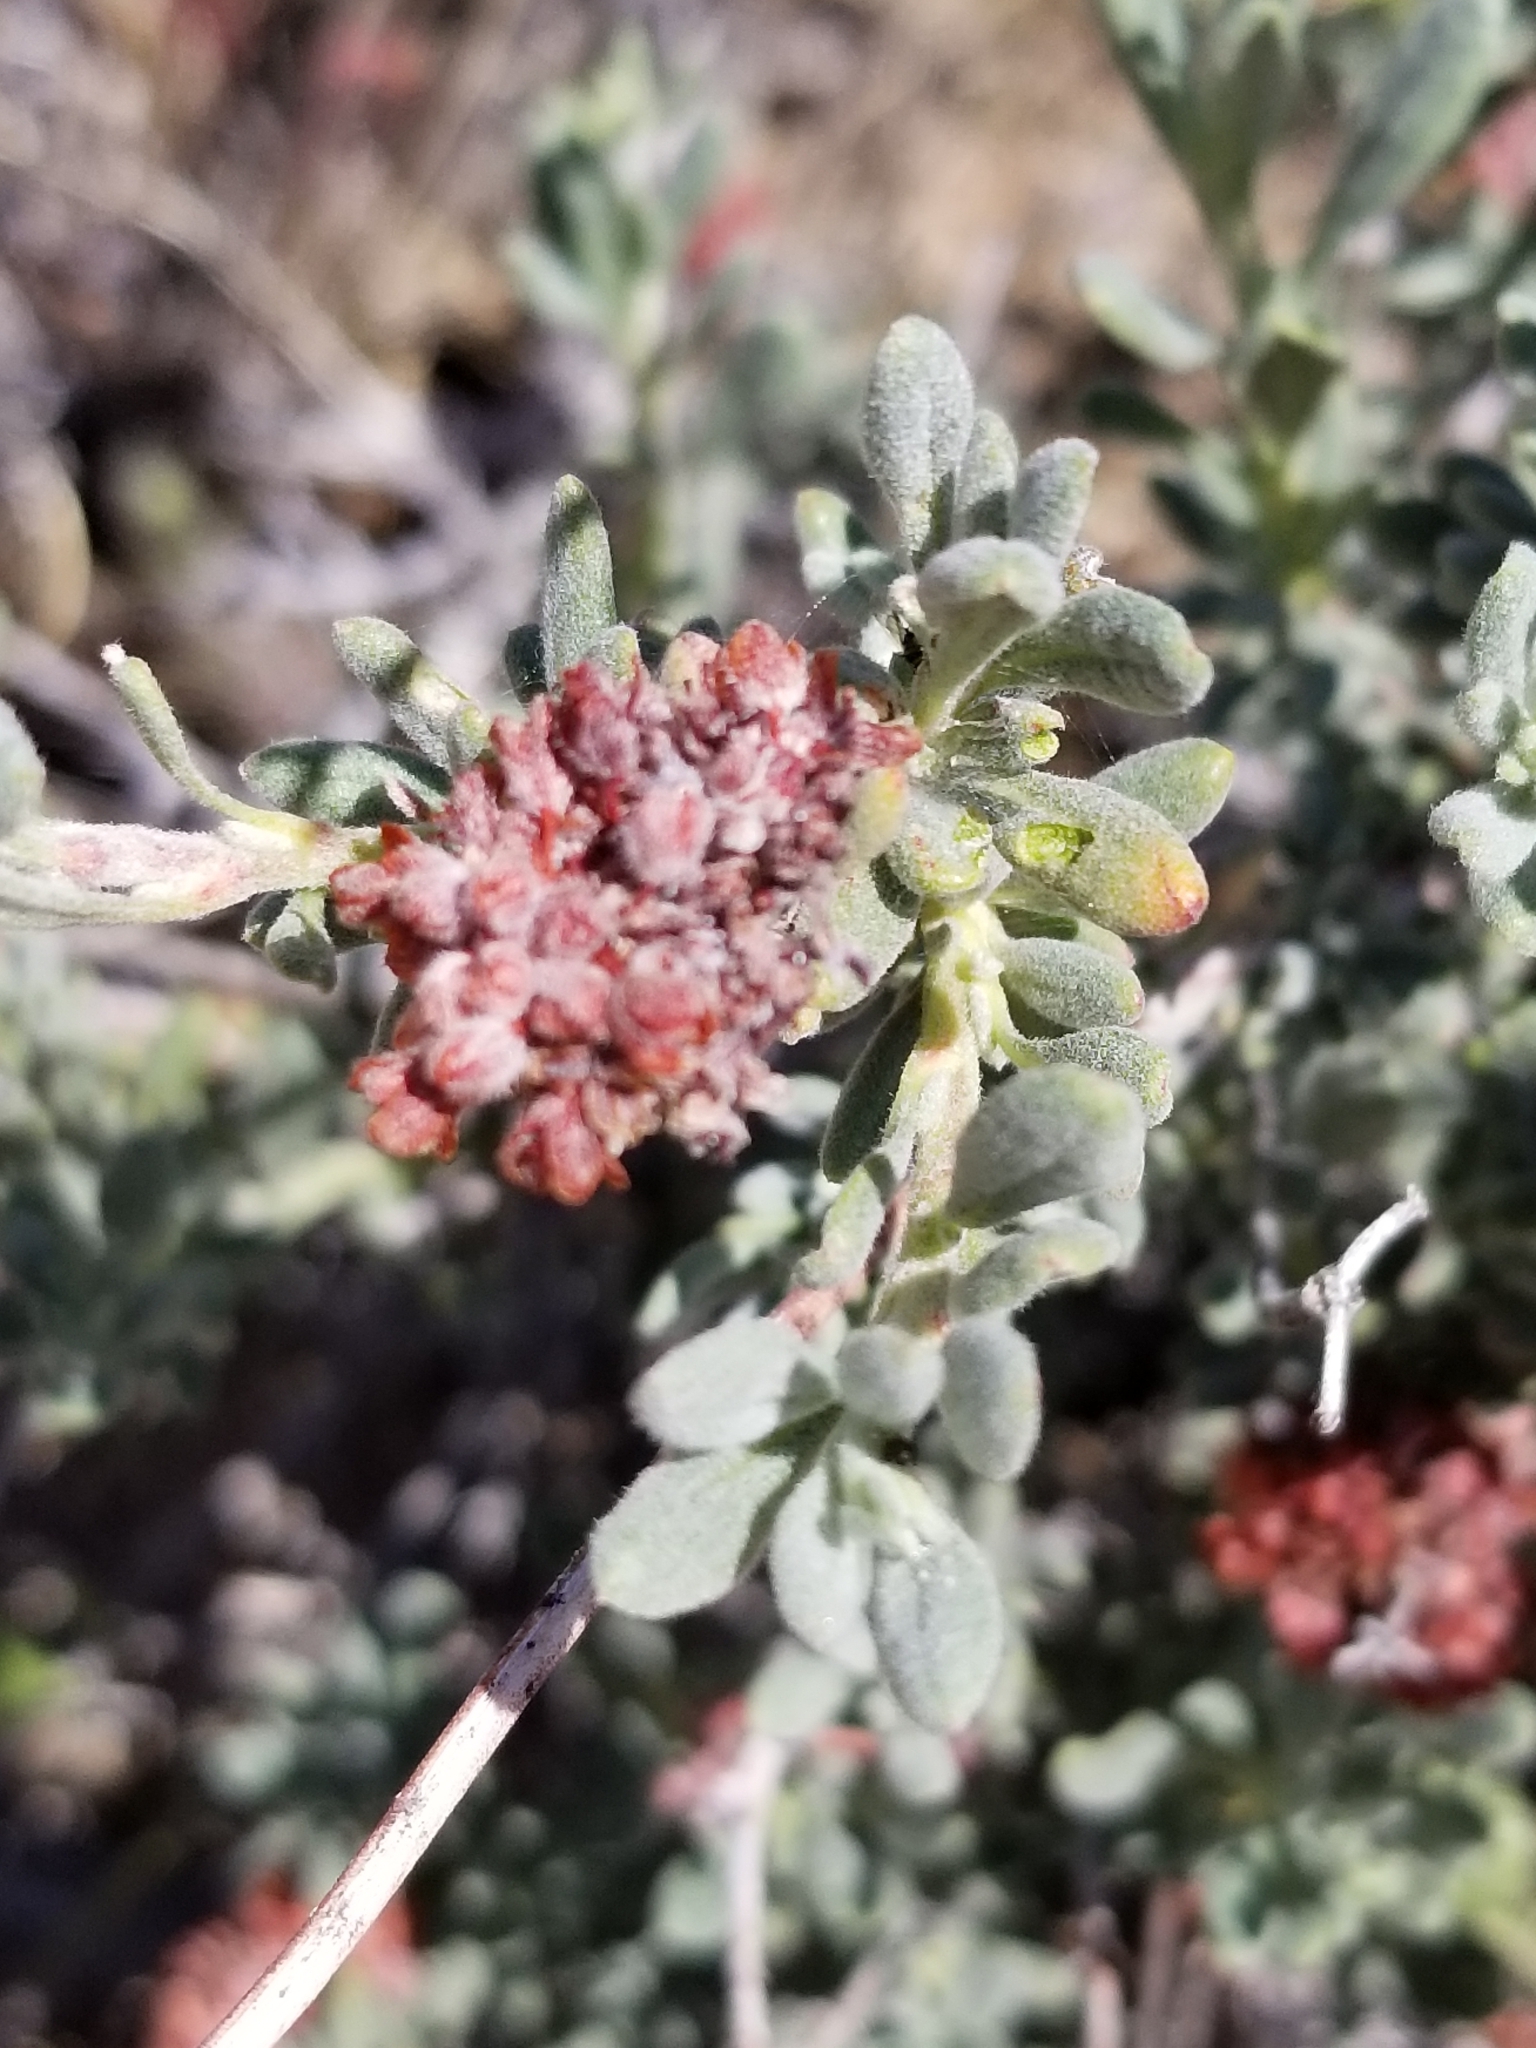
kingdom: Plantae
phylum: Tracheophyta
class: Magnoliopsida
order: Caryophyllales
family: Polygonaceae
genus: Eriogonum
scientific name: Eriogonum fasciculatum
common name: California wild buckwheat
